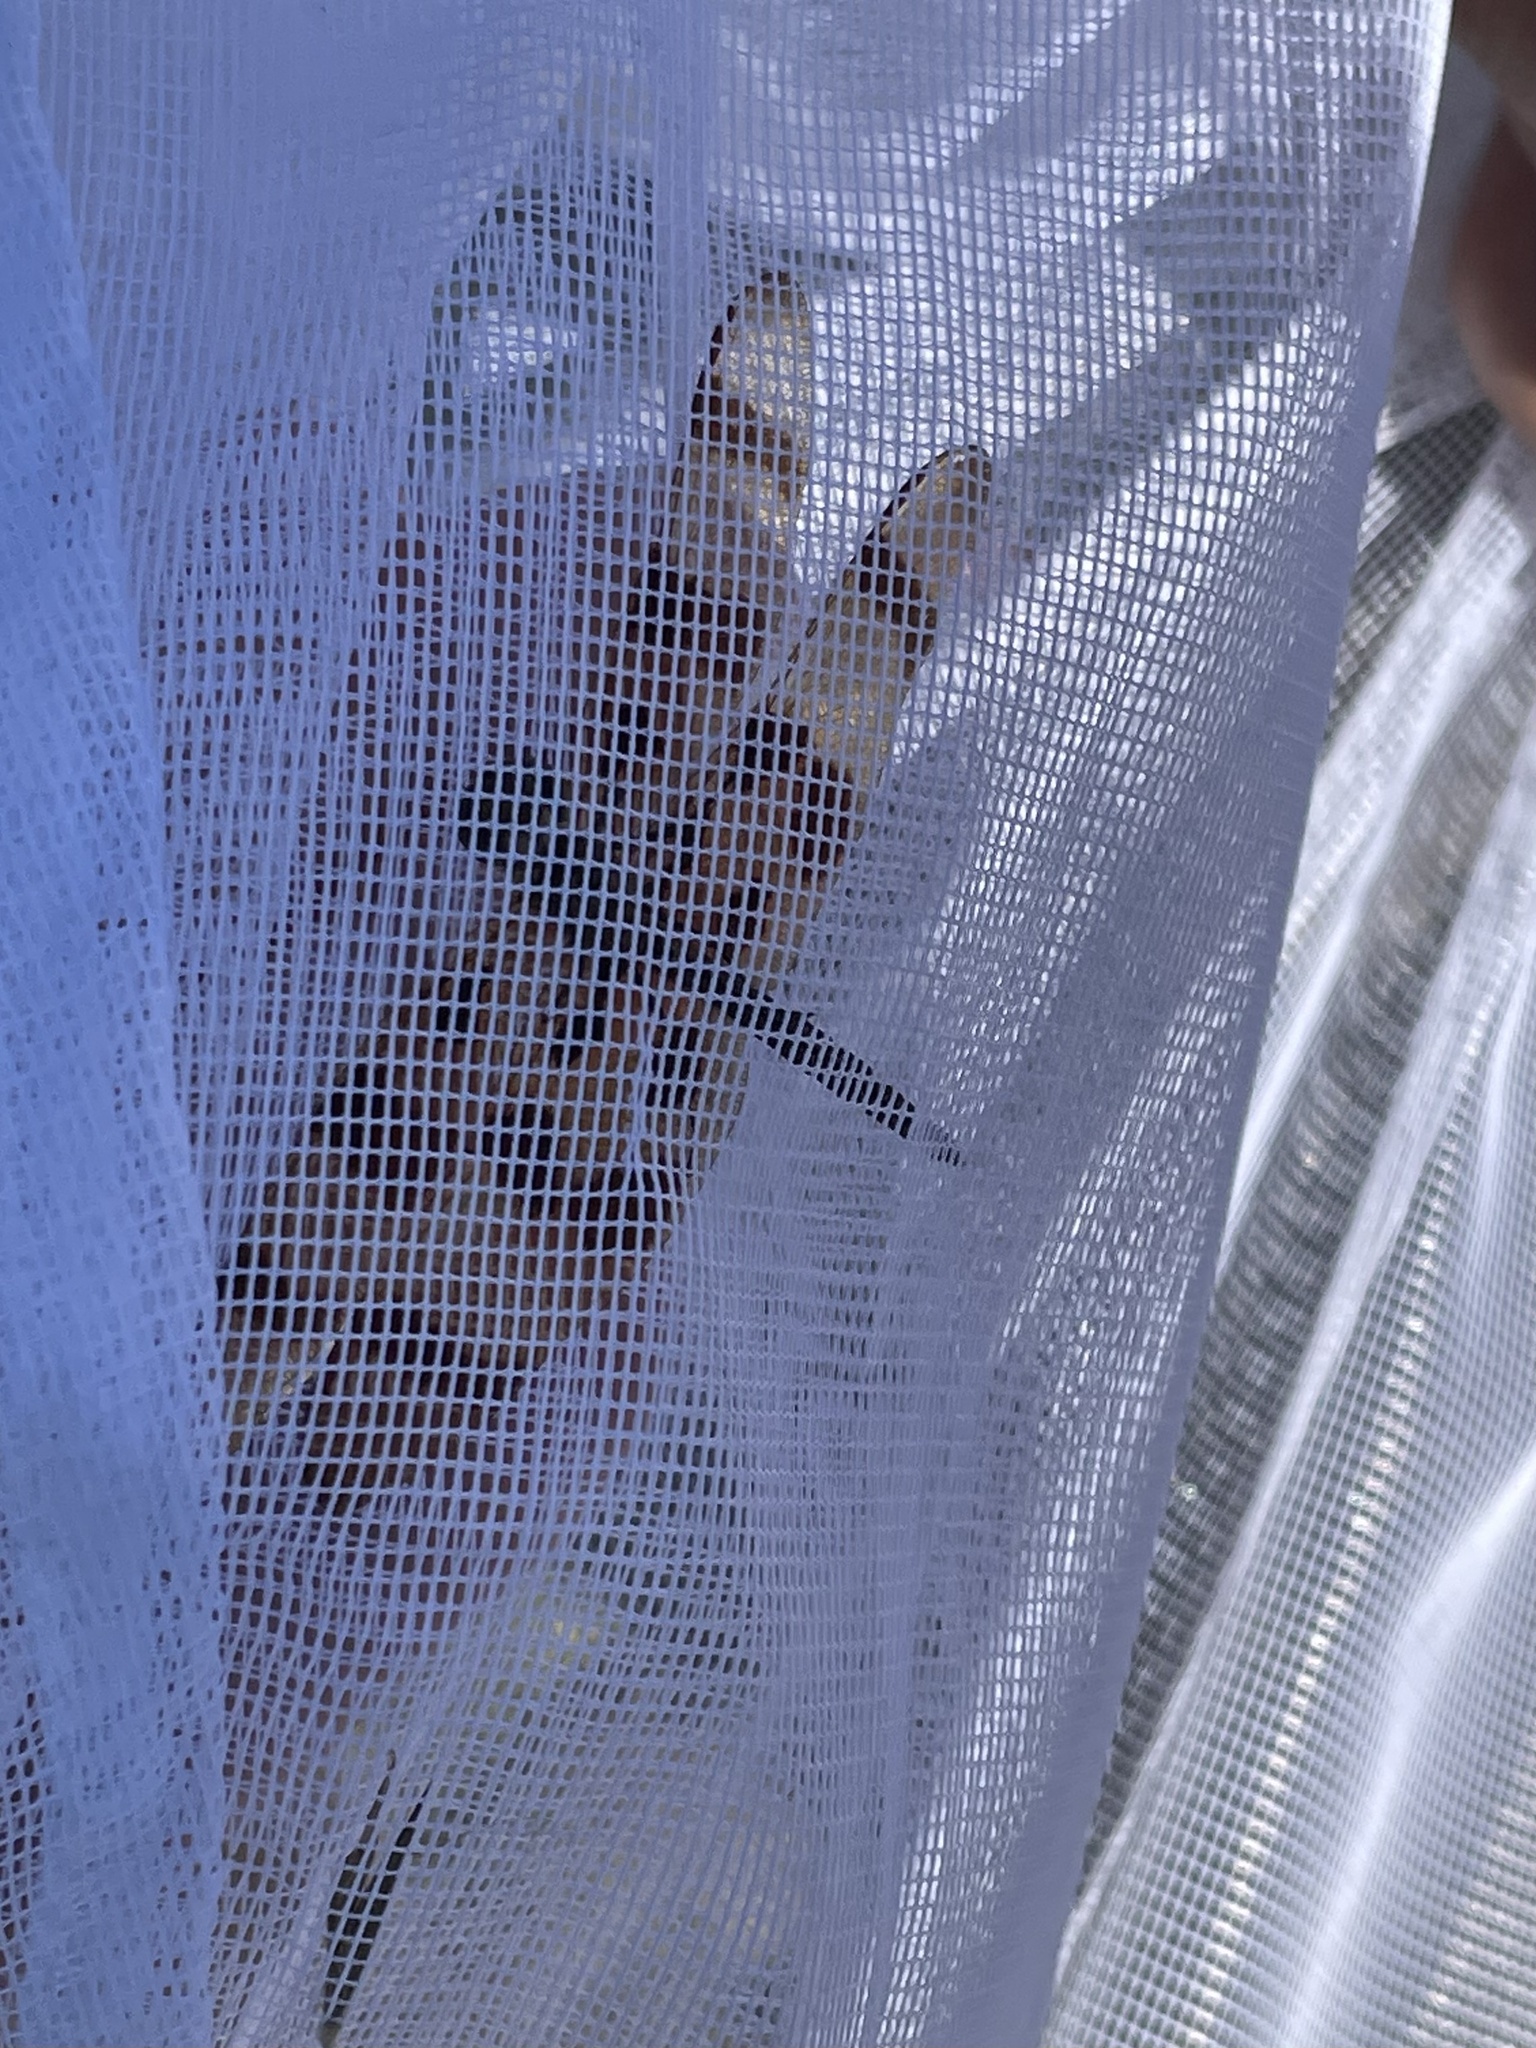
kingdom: Animalia
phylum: Arthropoda
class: Insecta
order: Odonata
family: Libellulidae
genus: Celithemis
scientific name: Celithemis eponina
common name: Halloween pennant
